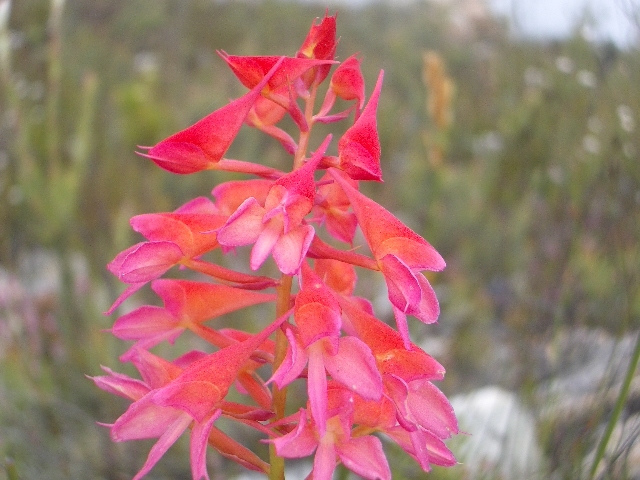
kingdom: Plantae
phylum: Tracheophyta
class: Liliopsida
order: Asparagales
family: Orchidaceae
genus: Disa
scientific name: Disa ferruginea
